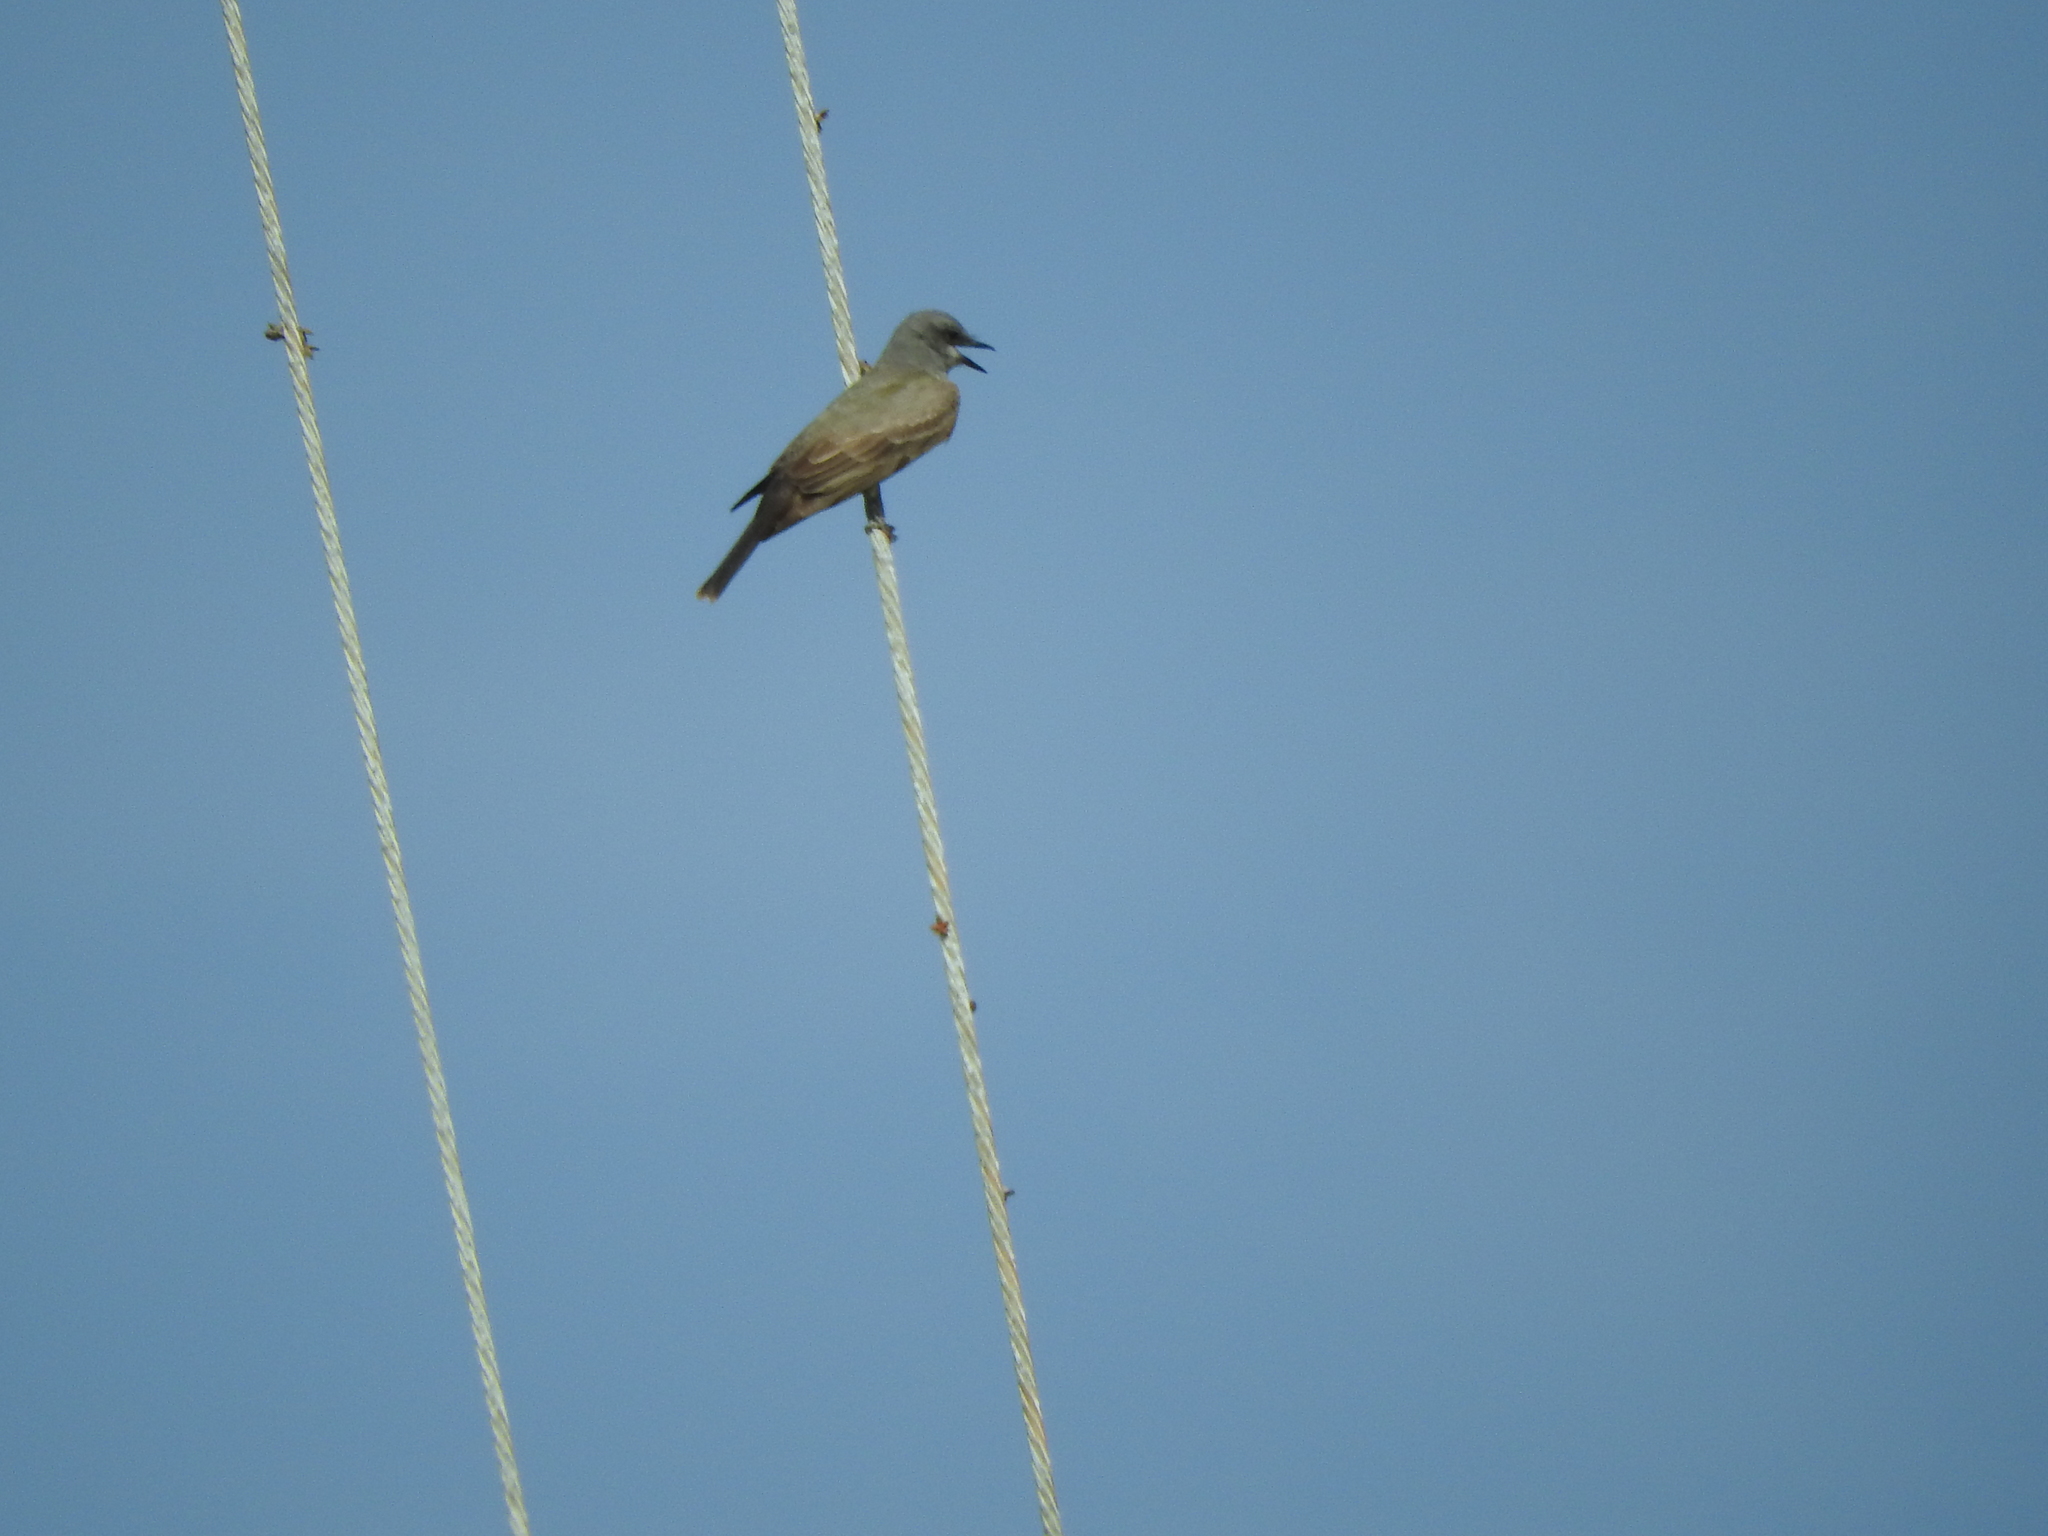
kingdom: Animalia
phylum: Chordata
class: Aves
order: Passeriformes
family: Tyrannidae
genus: Tyrannus
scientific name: Tyrannus vociferans
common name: Cassin's kingbird
